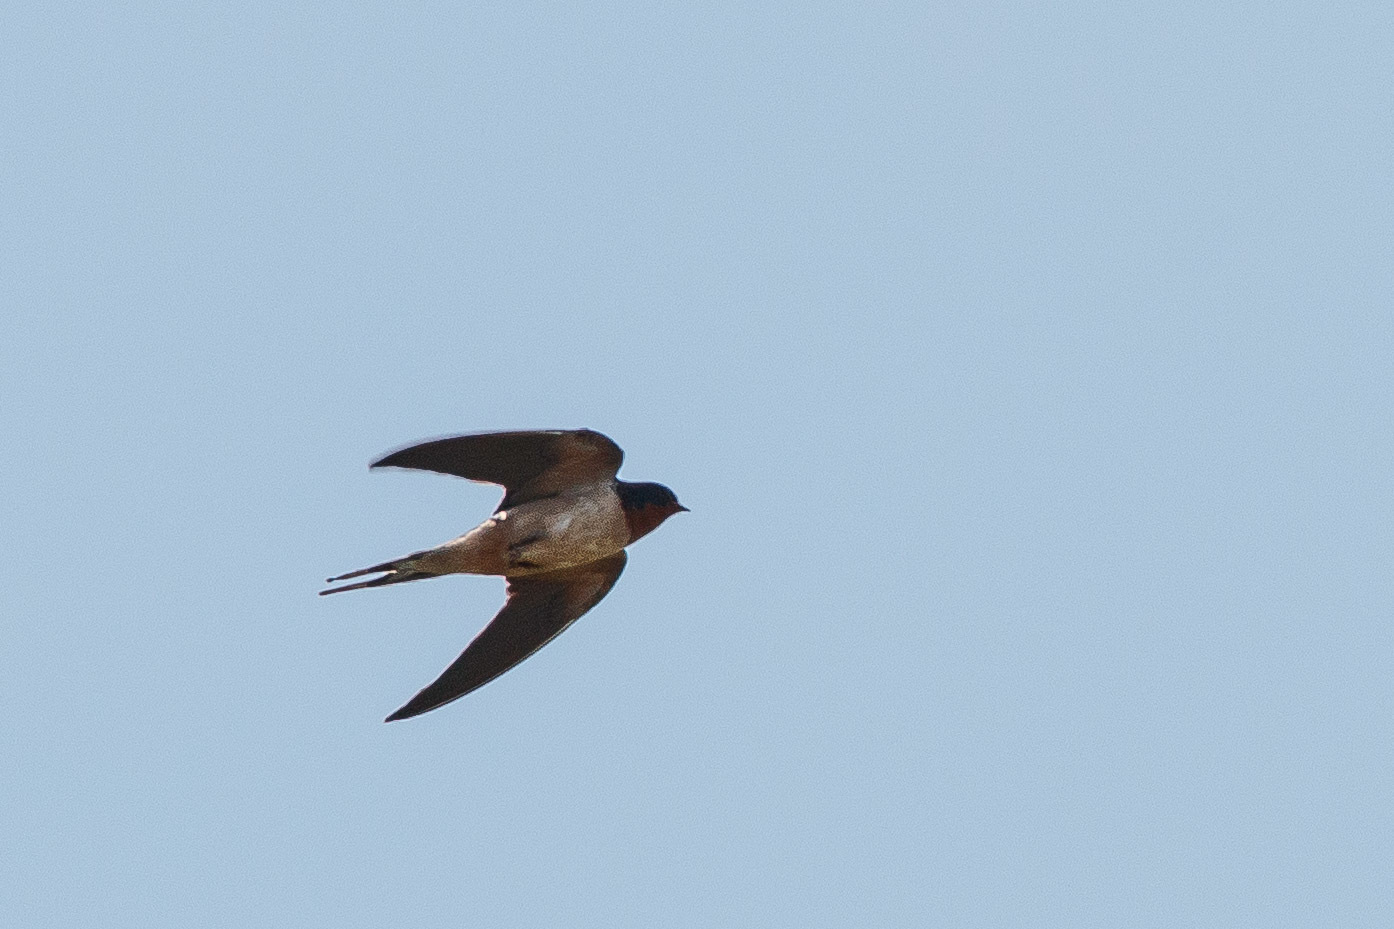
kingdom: Animalia
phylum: Chordata
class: Aves
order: Passeriformes
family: Hirundinidae
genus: Hirundo
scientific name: Hirundo rustica
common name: Barn swallow
